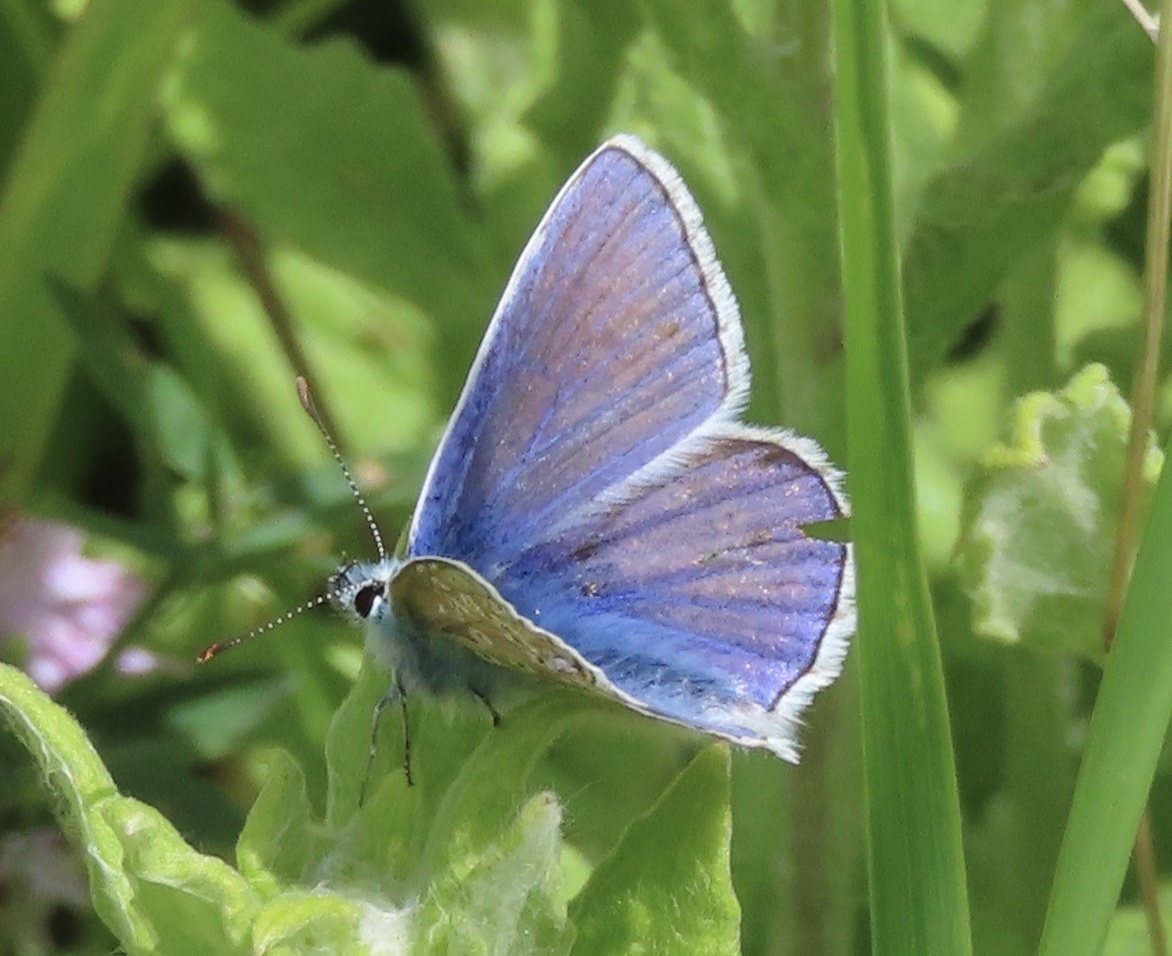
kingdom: Animalia
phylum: Arthropoda
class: Insecta
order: Lepidoptera
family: Lycaenidae
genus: Polyommatus
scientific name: Polyommatus icarus
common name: Common blue
